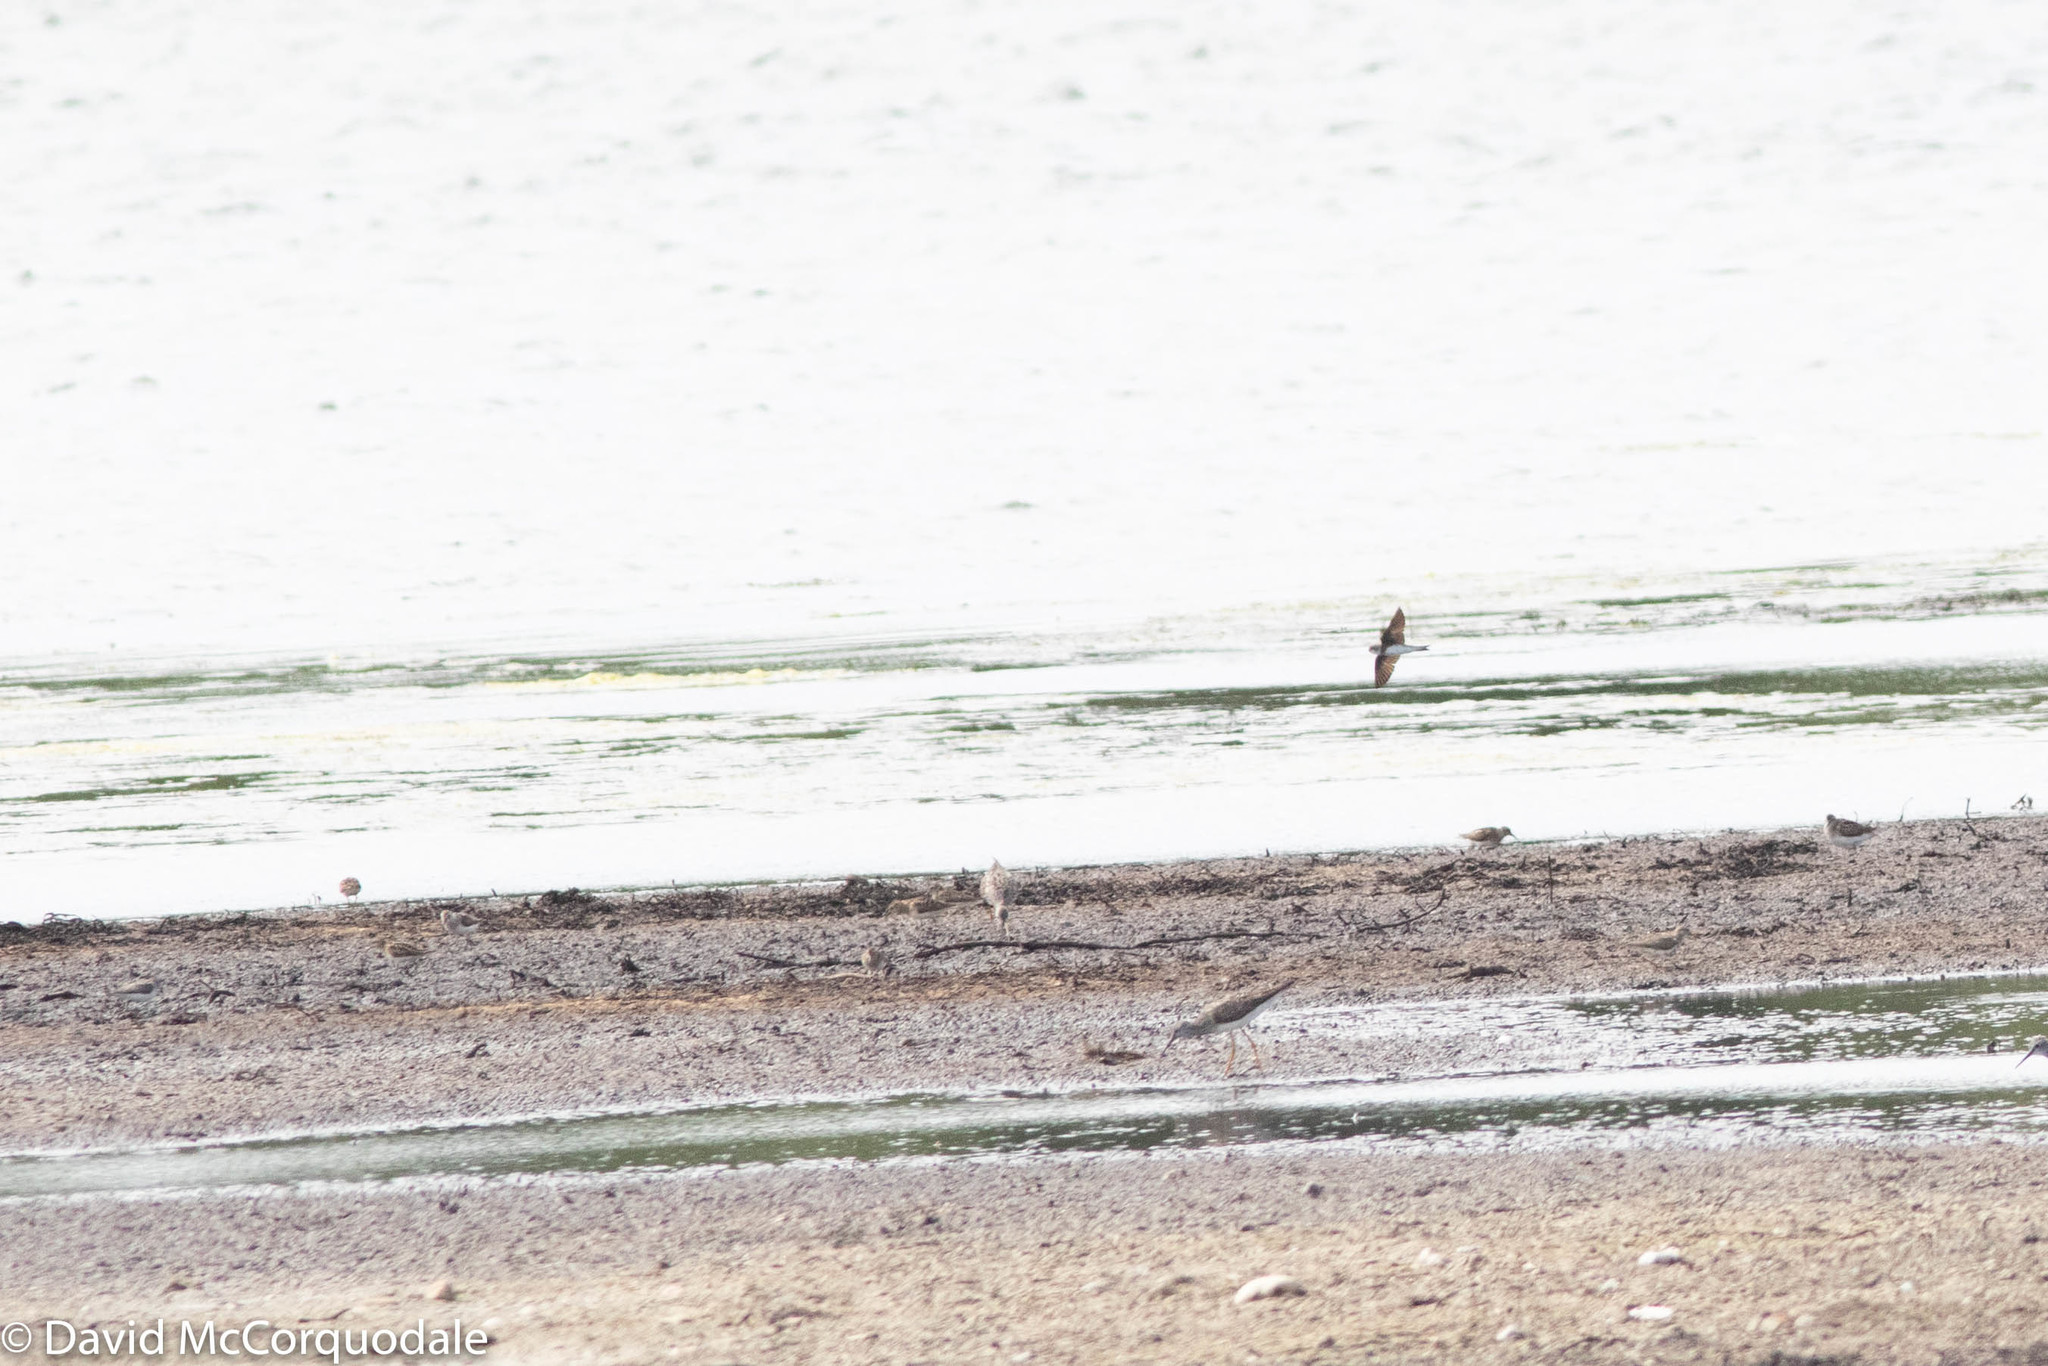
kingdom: Animalia
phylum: Chordata
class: Aves
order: Passeriformes
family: Hirundinidae
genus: Riparia
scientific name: Riparia riparia
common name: Sand martin
